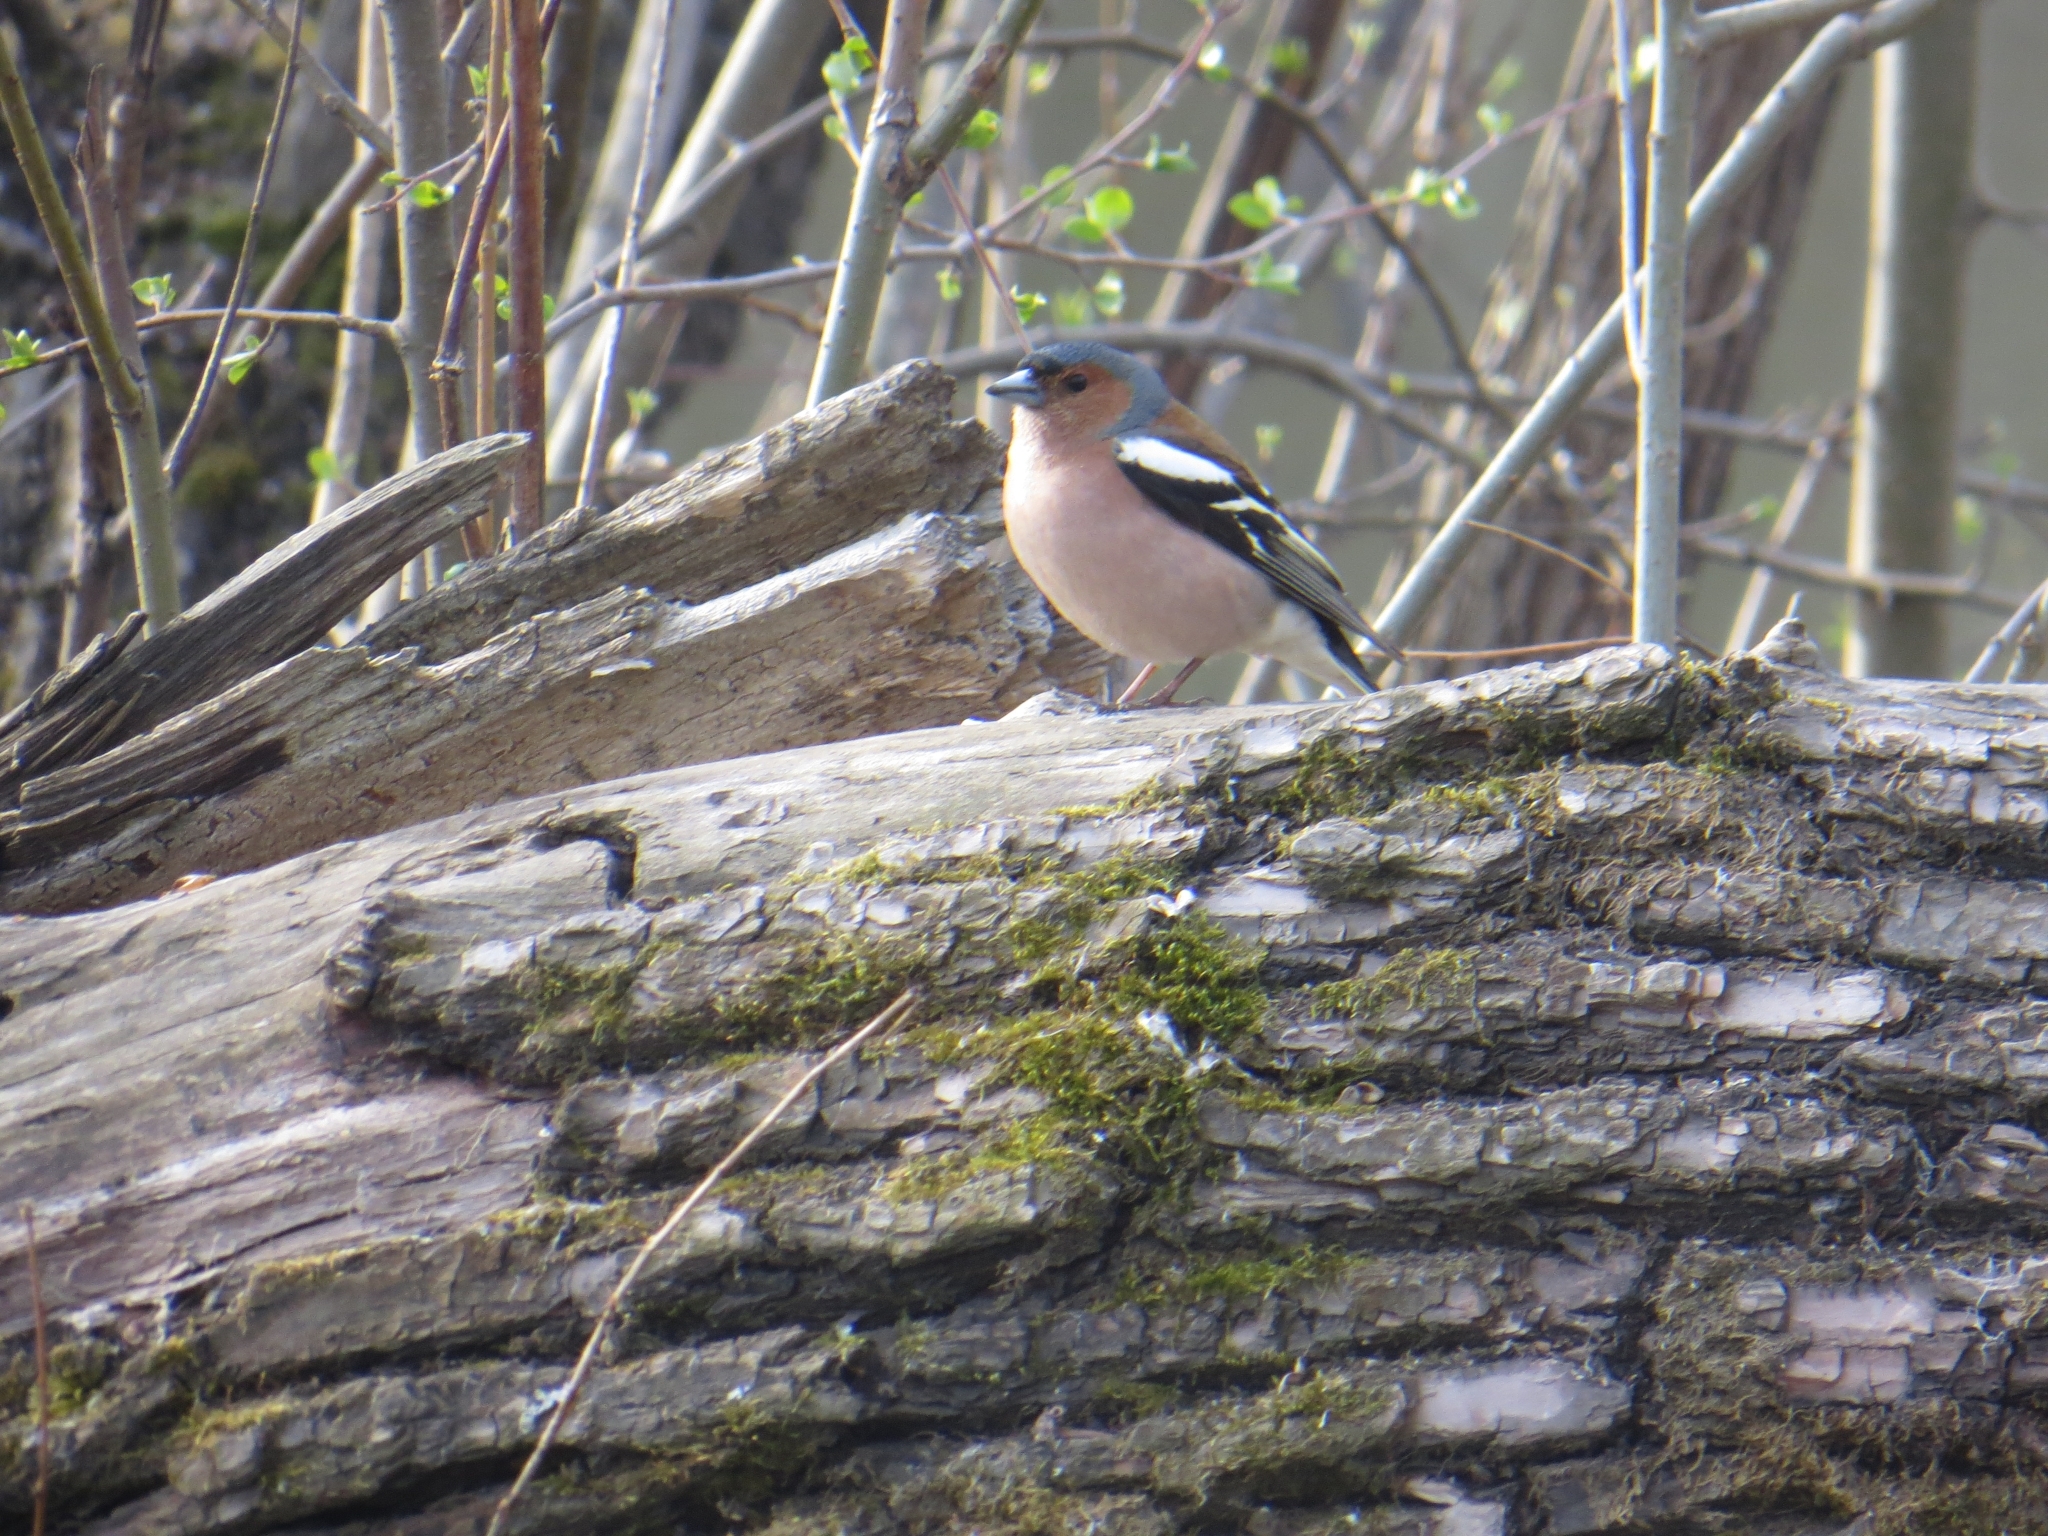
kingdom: Animalia
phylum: Chordata
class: Aves
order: Passeriformes
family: Fringillidae
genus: Fringilla
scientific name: Fringilla coelebs
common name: Common chaffinch
